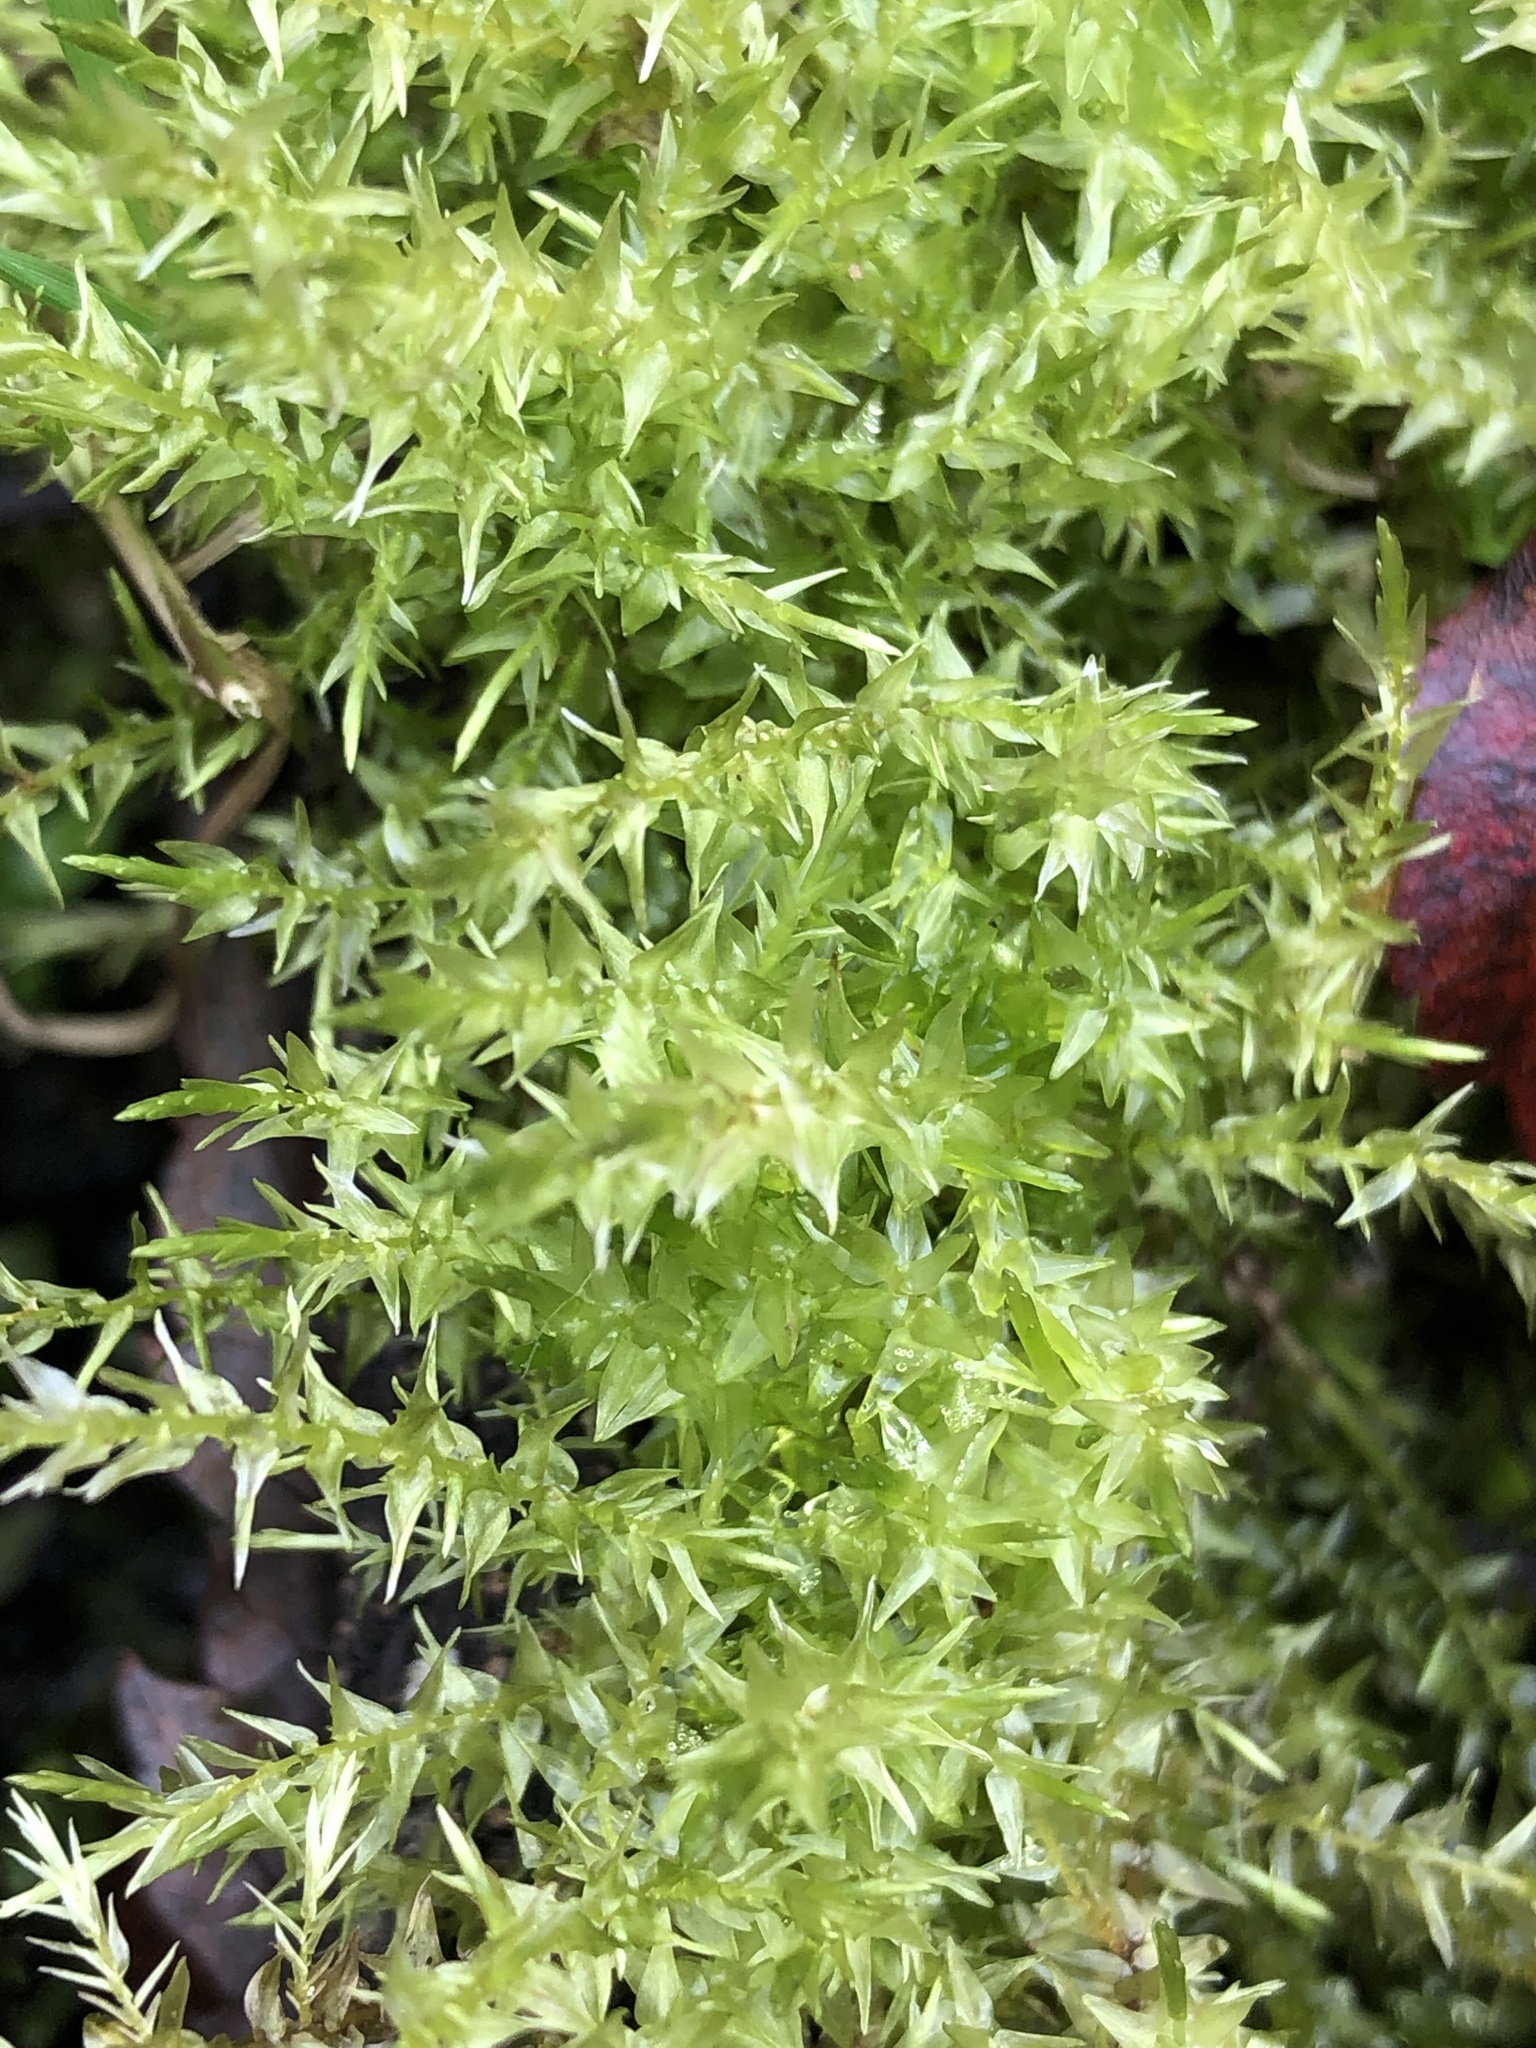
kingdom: Plantae
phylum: Bryophyta
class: Bryopsida
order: Hypnales
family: Calliergonaceae
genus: Calliergon
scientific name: Calliergon cordifolium
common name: Heart-leaved spear moss
